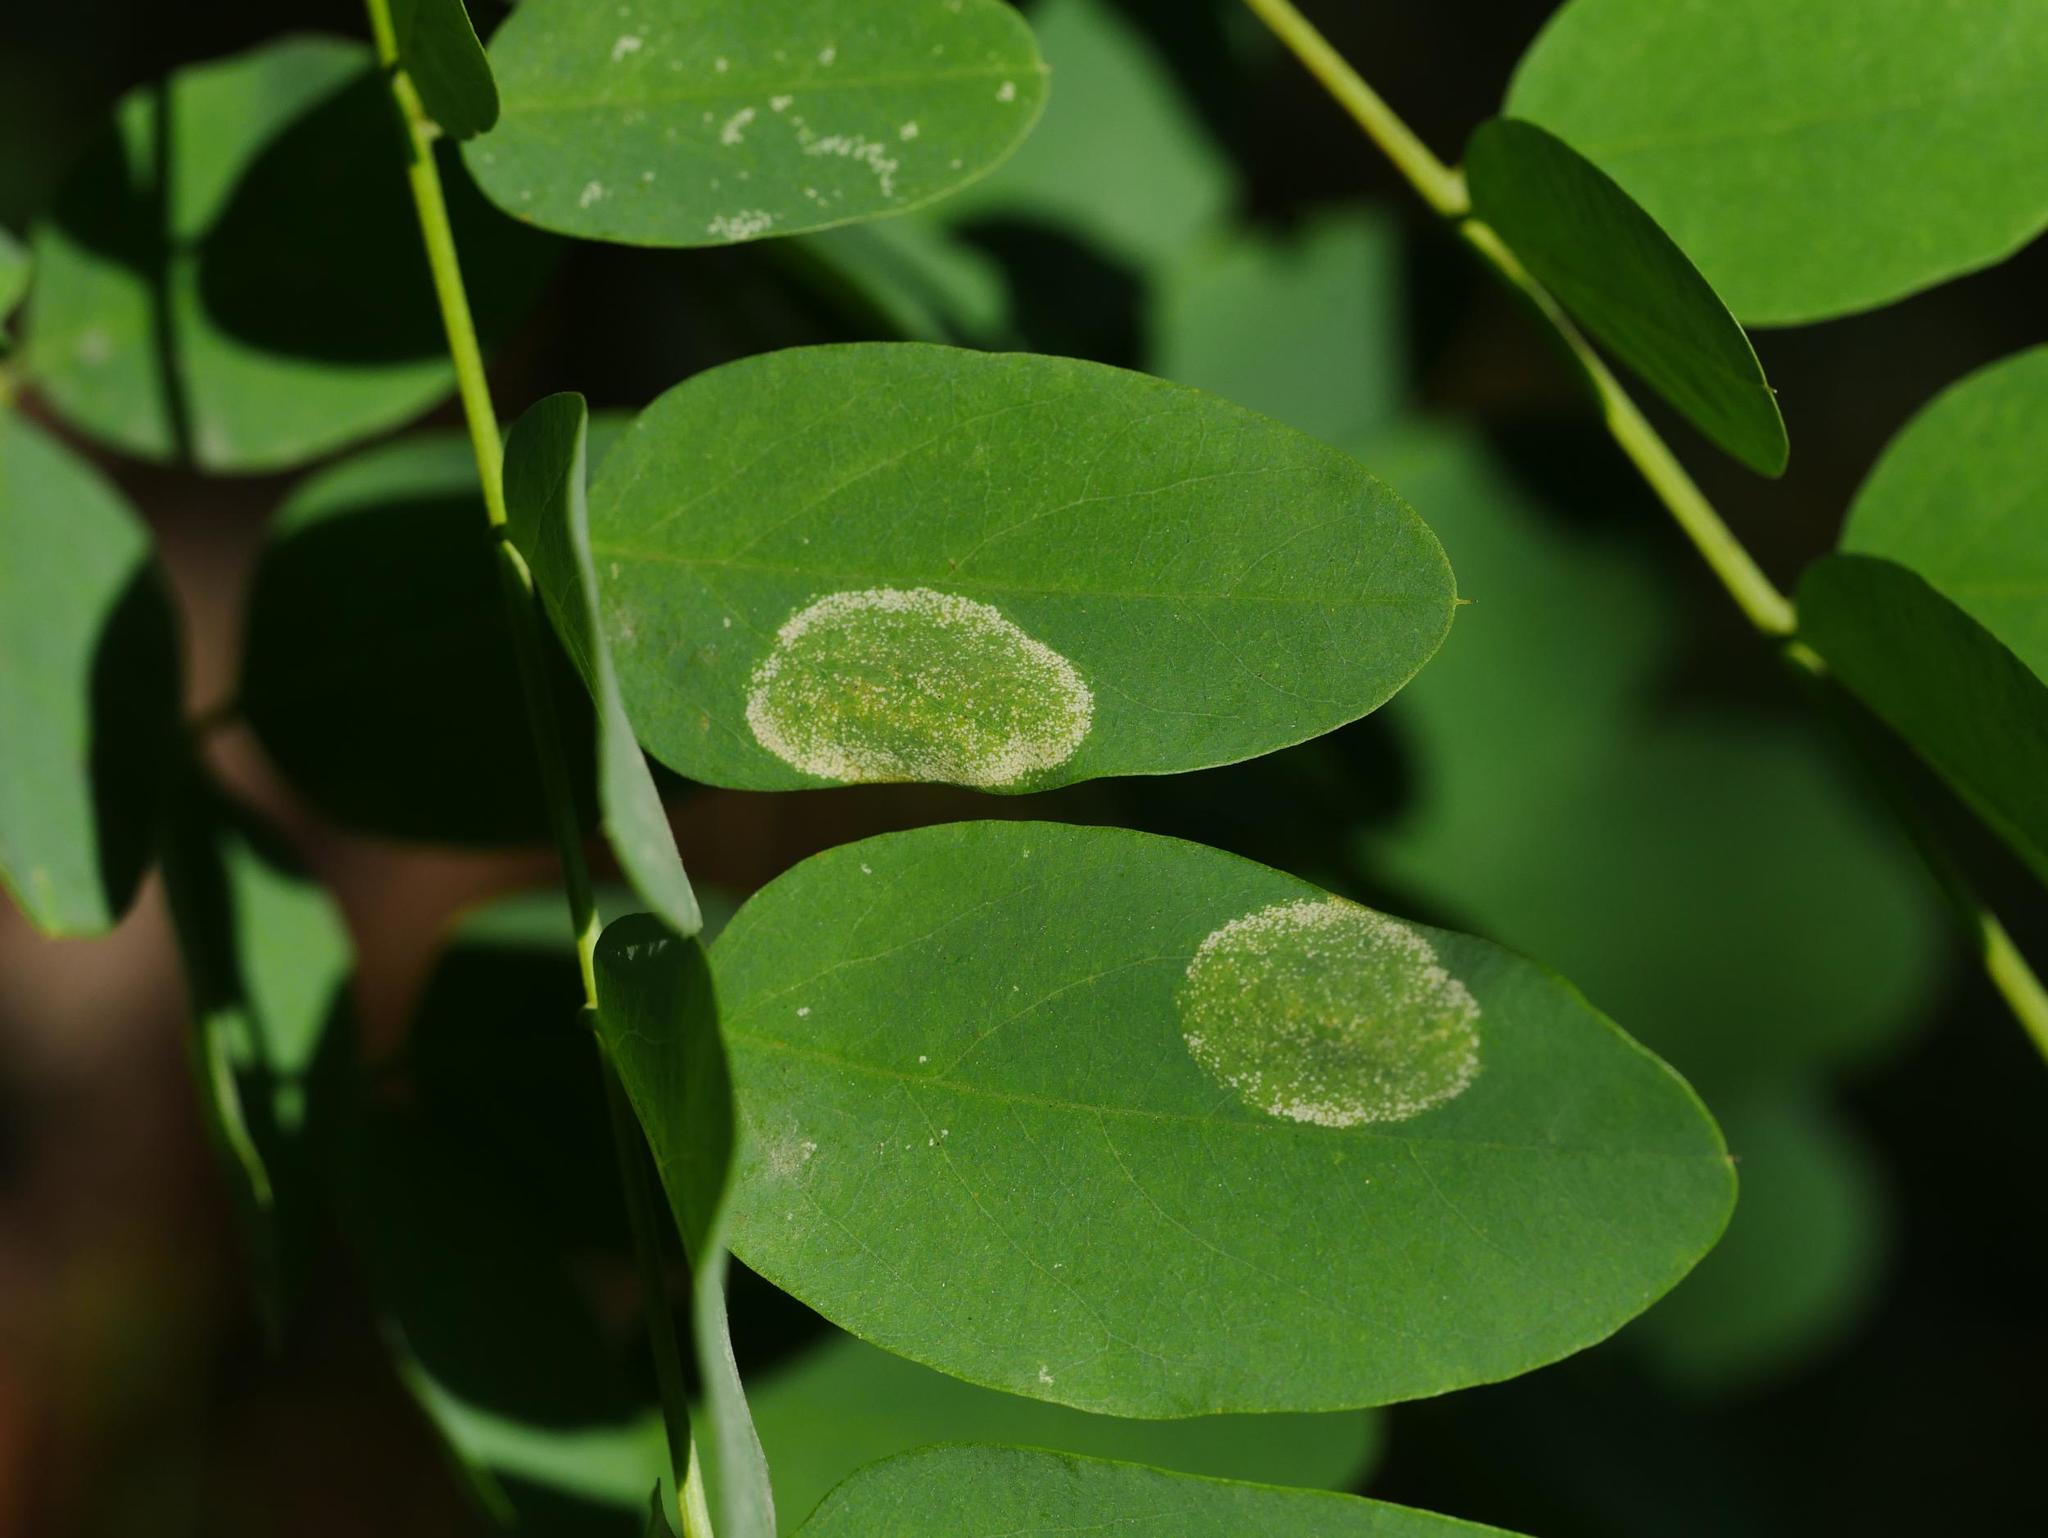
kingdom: Animalia
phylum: Arthropoda
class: Insecta
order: Lepidoptera
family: Gracillariidae
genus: Macrosaccus
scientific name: Macrosaccus robiniella
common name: Leaf blotch miner moth
